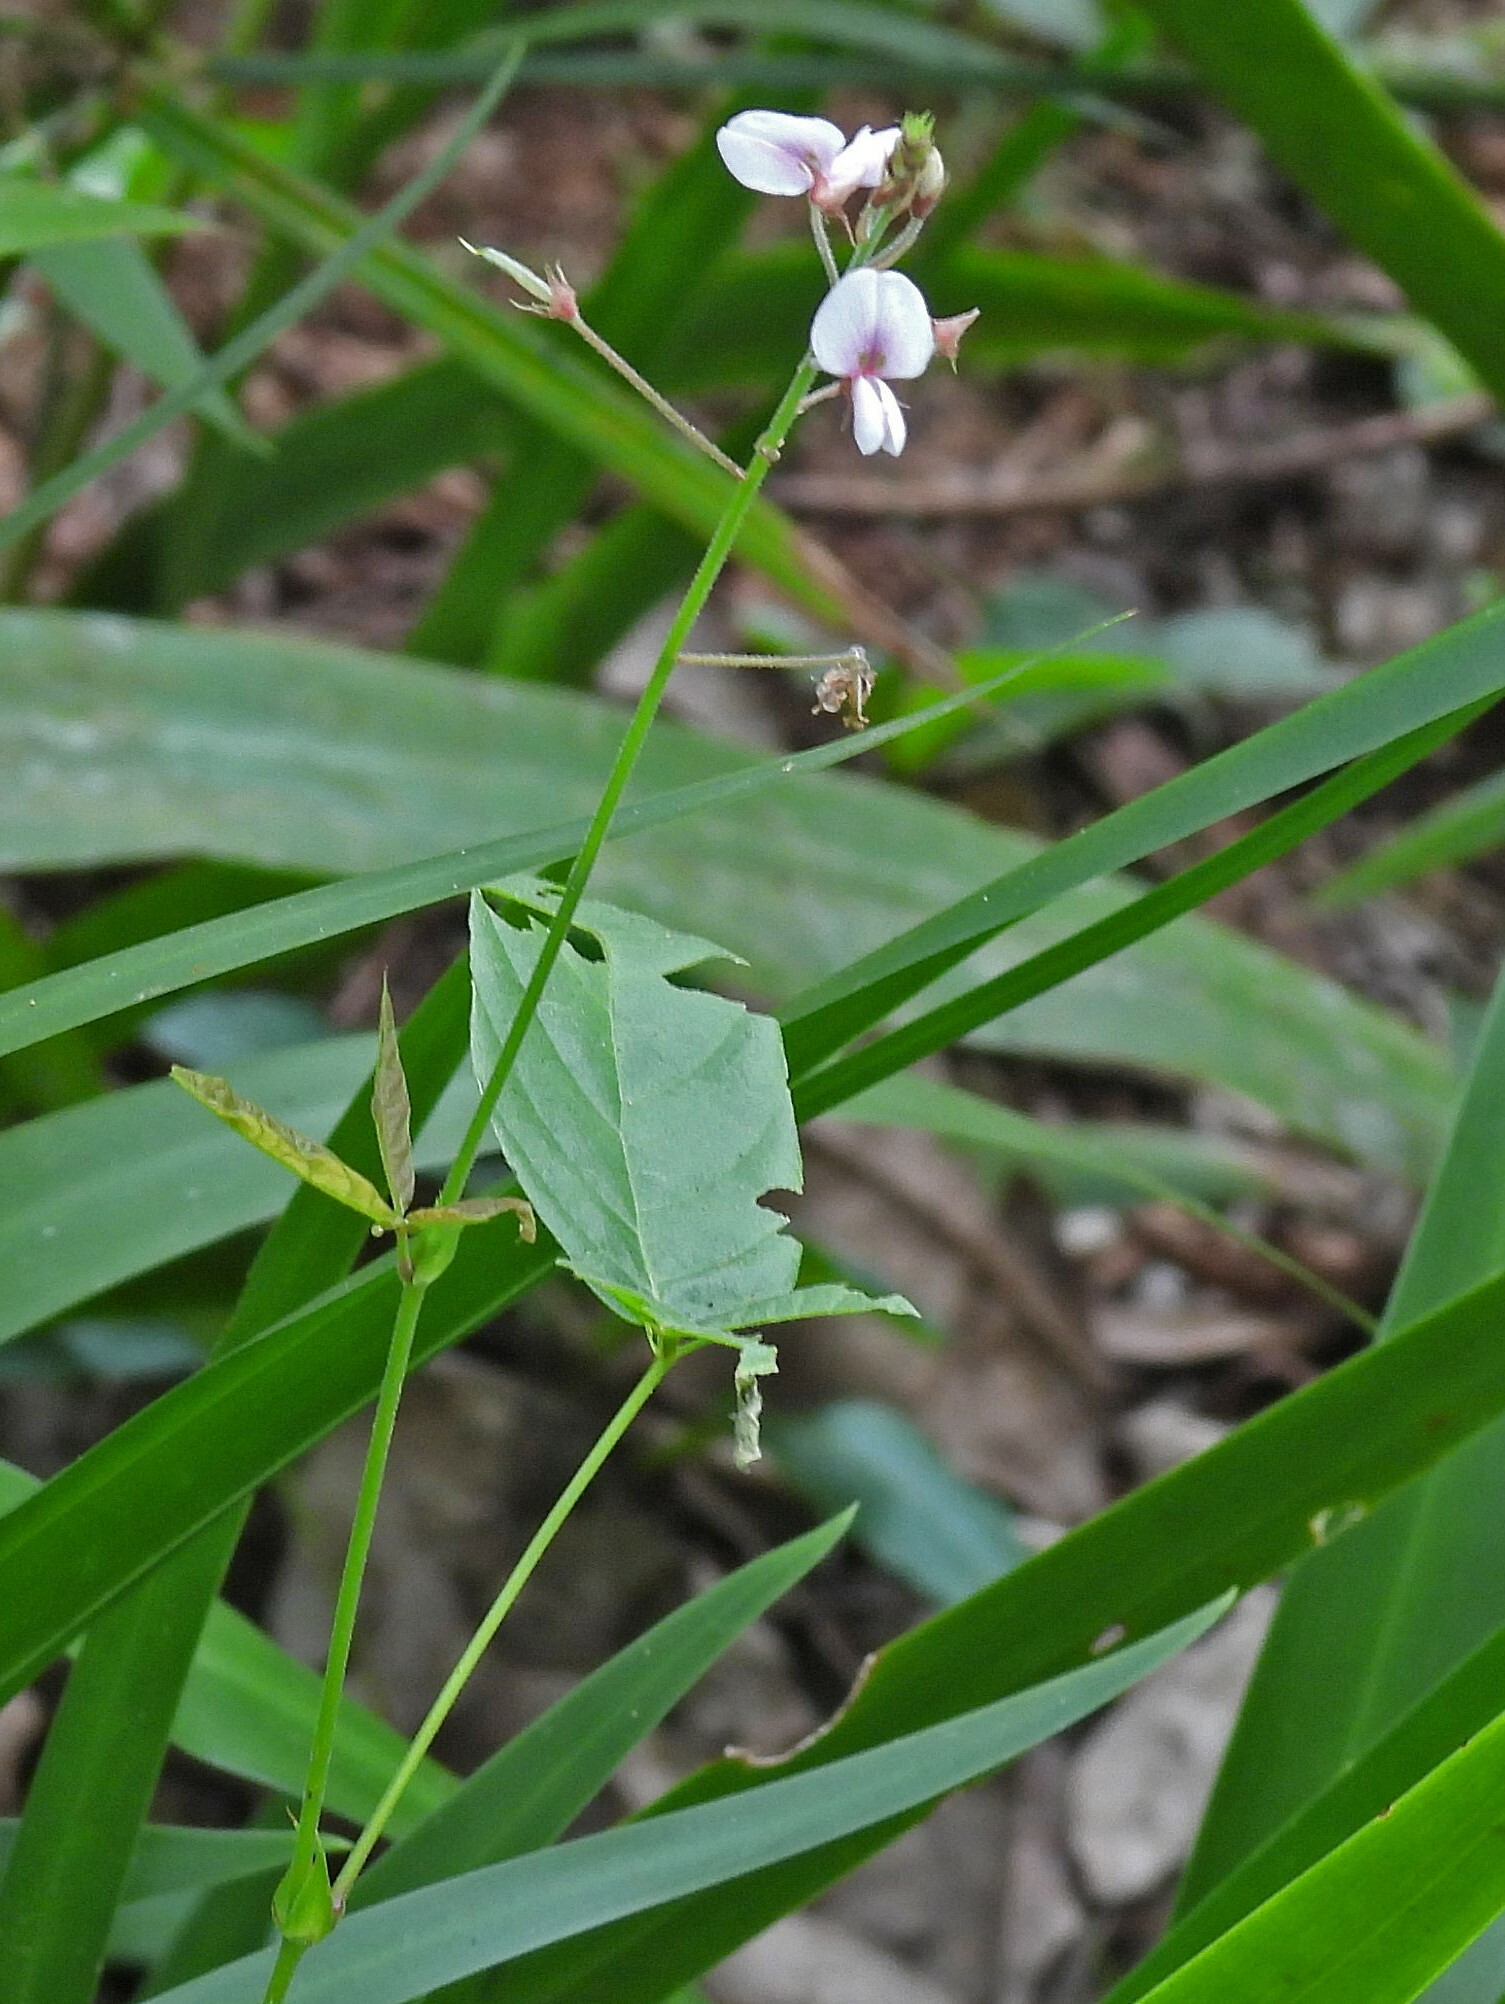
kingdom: Plantae
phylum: Tracheophyta
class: Magnoliopsida
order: Fabales
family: Fabaceae
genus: Desmodium
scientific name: Desmodium affine
